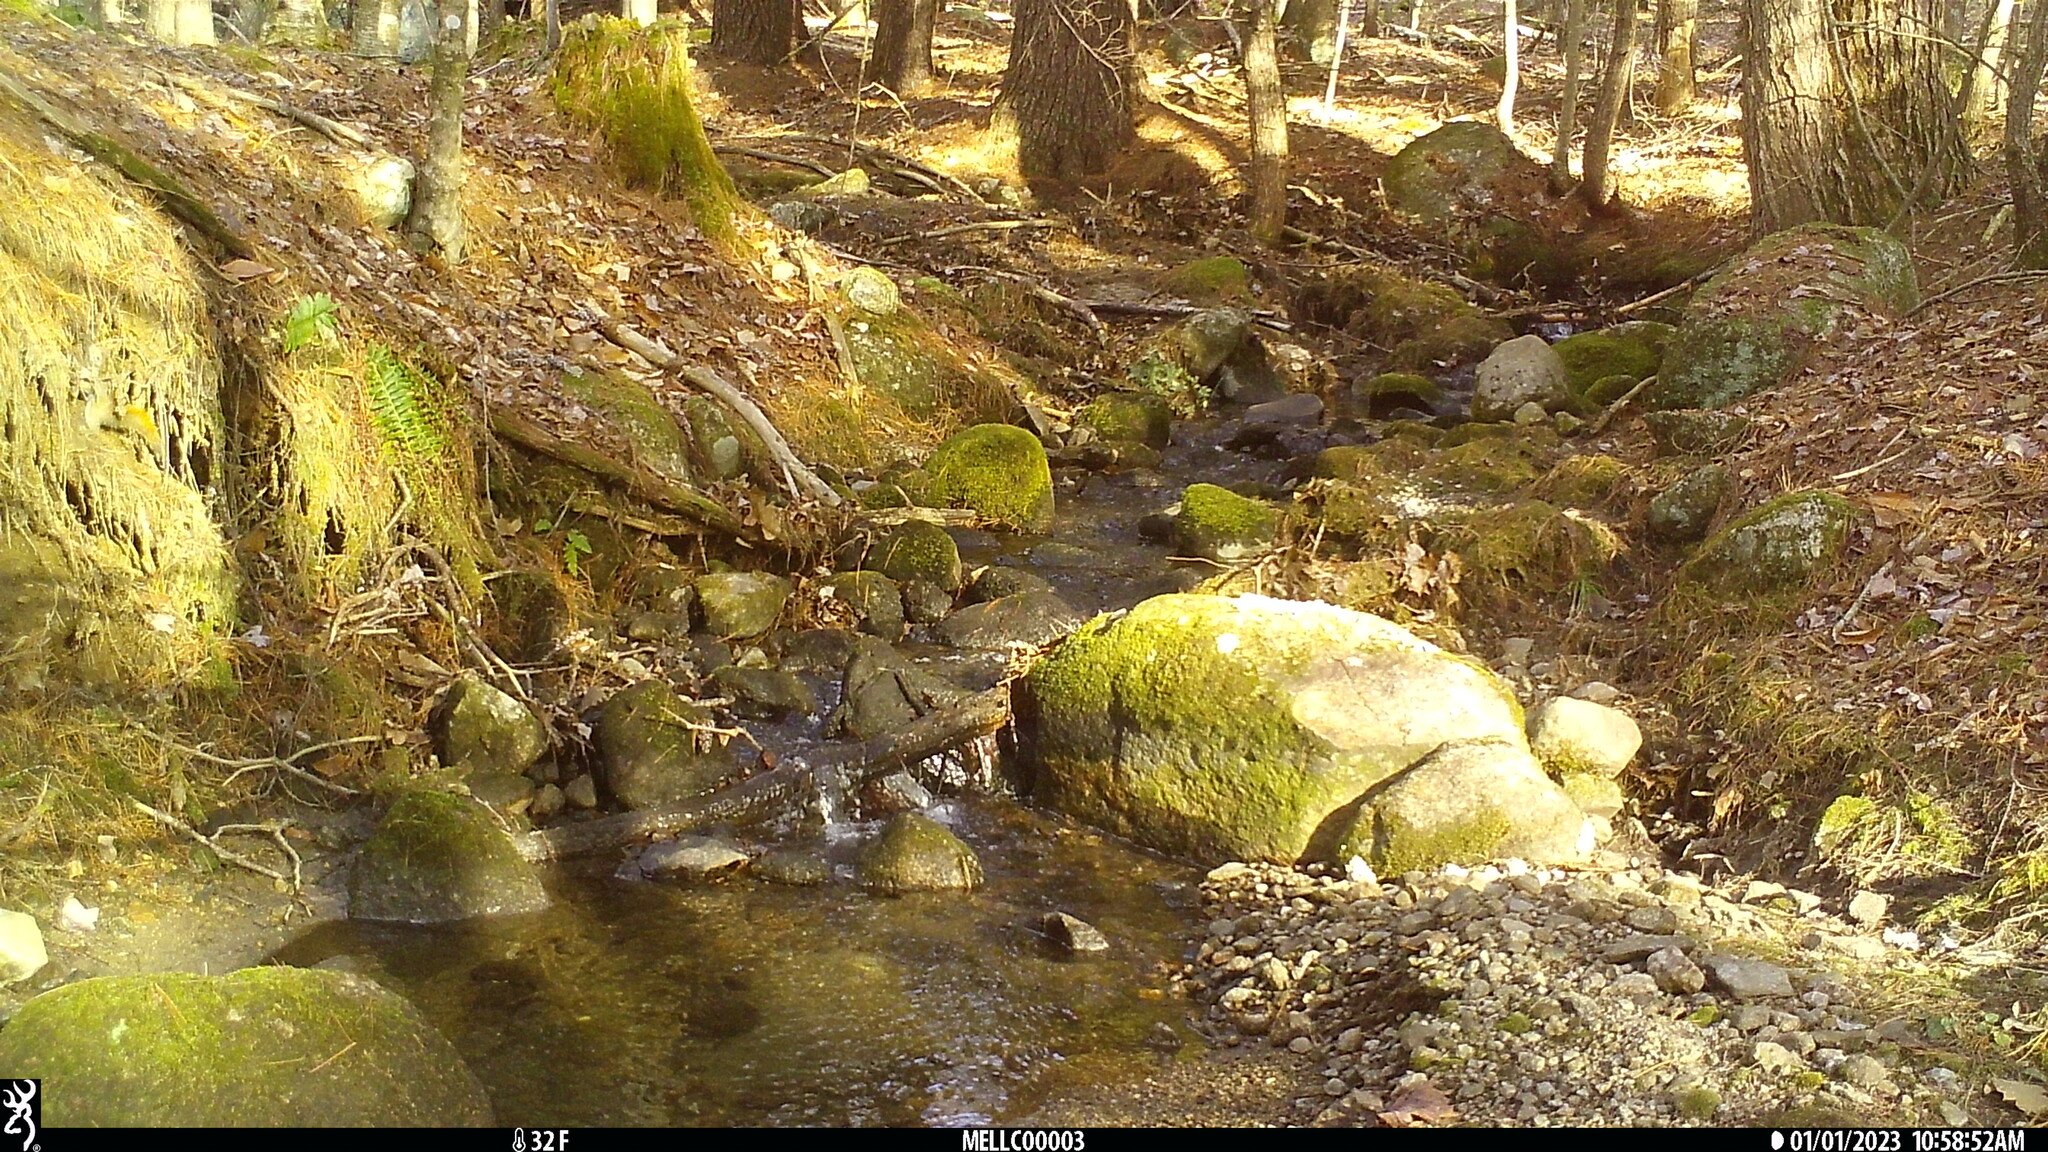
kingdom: Animalia
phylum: Chordata
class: Mammalia
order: Rodentia
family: Sciuridae
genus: Tamiasciurus
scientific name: Tamiasciurus hudsonicus
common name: Red squirrel
